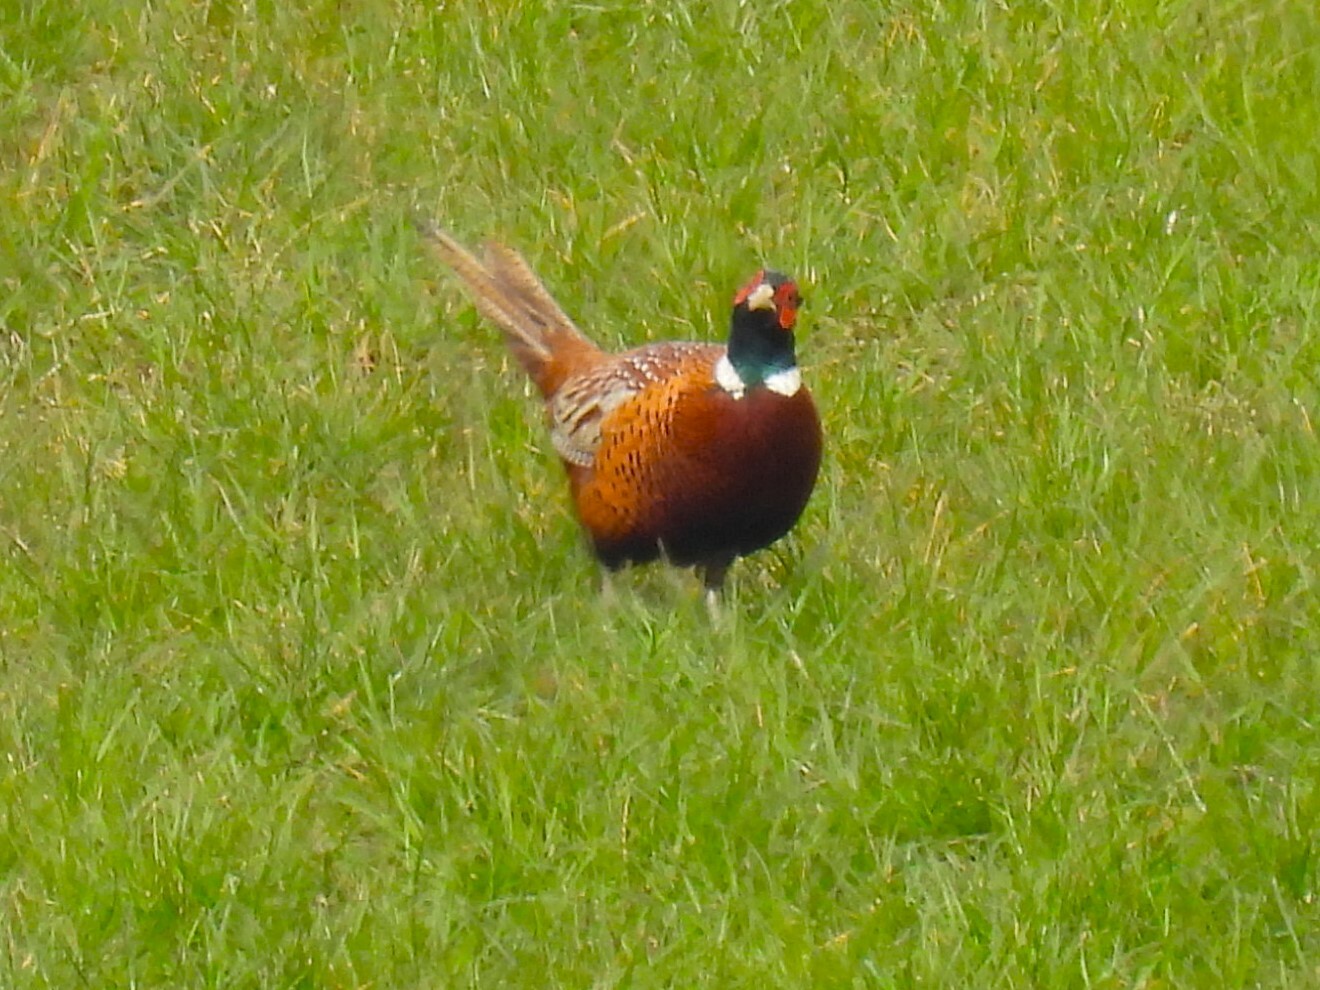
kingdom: Animalia
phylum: Chordata
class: Aves
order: Galliformes
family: Phasianidae
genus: Phasianus
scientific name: Phasianus colchicus
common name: Common pheasant
